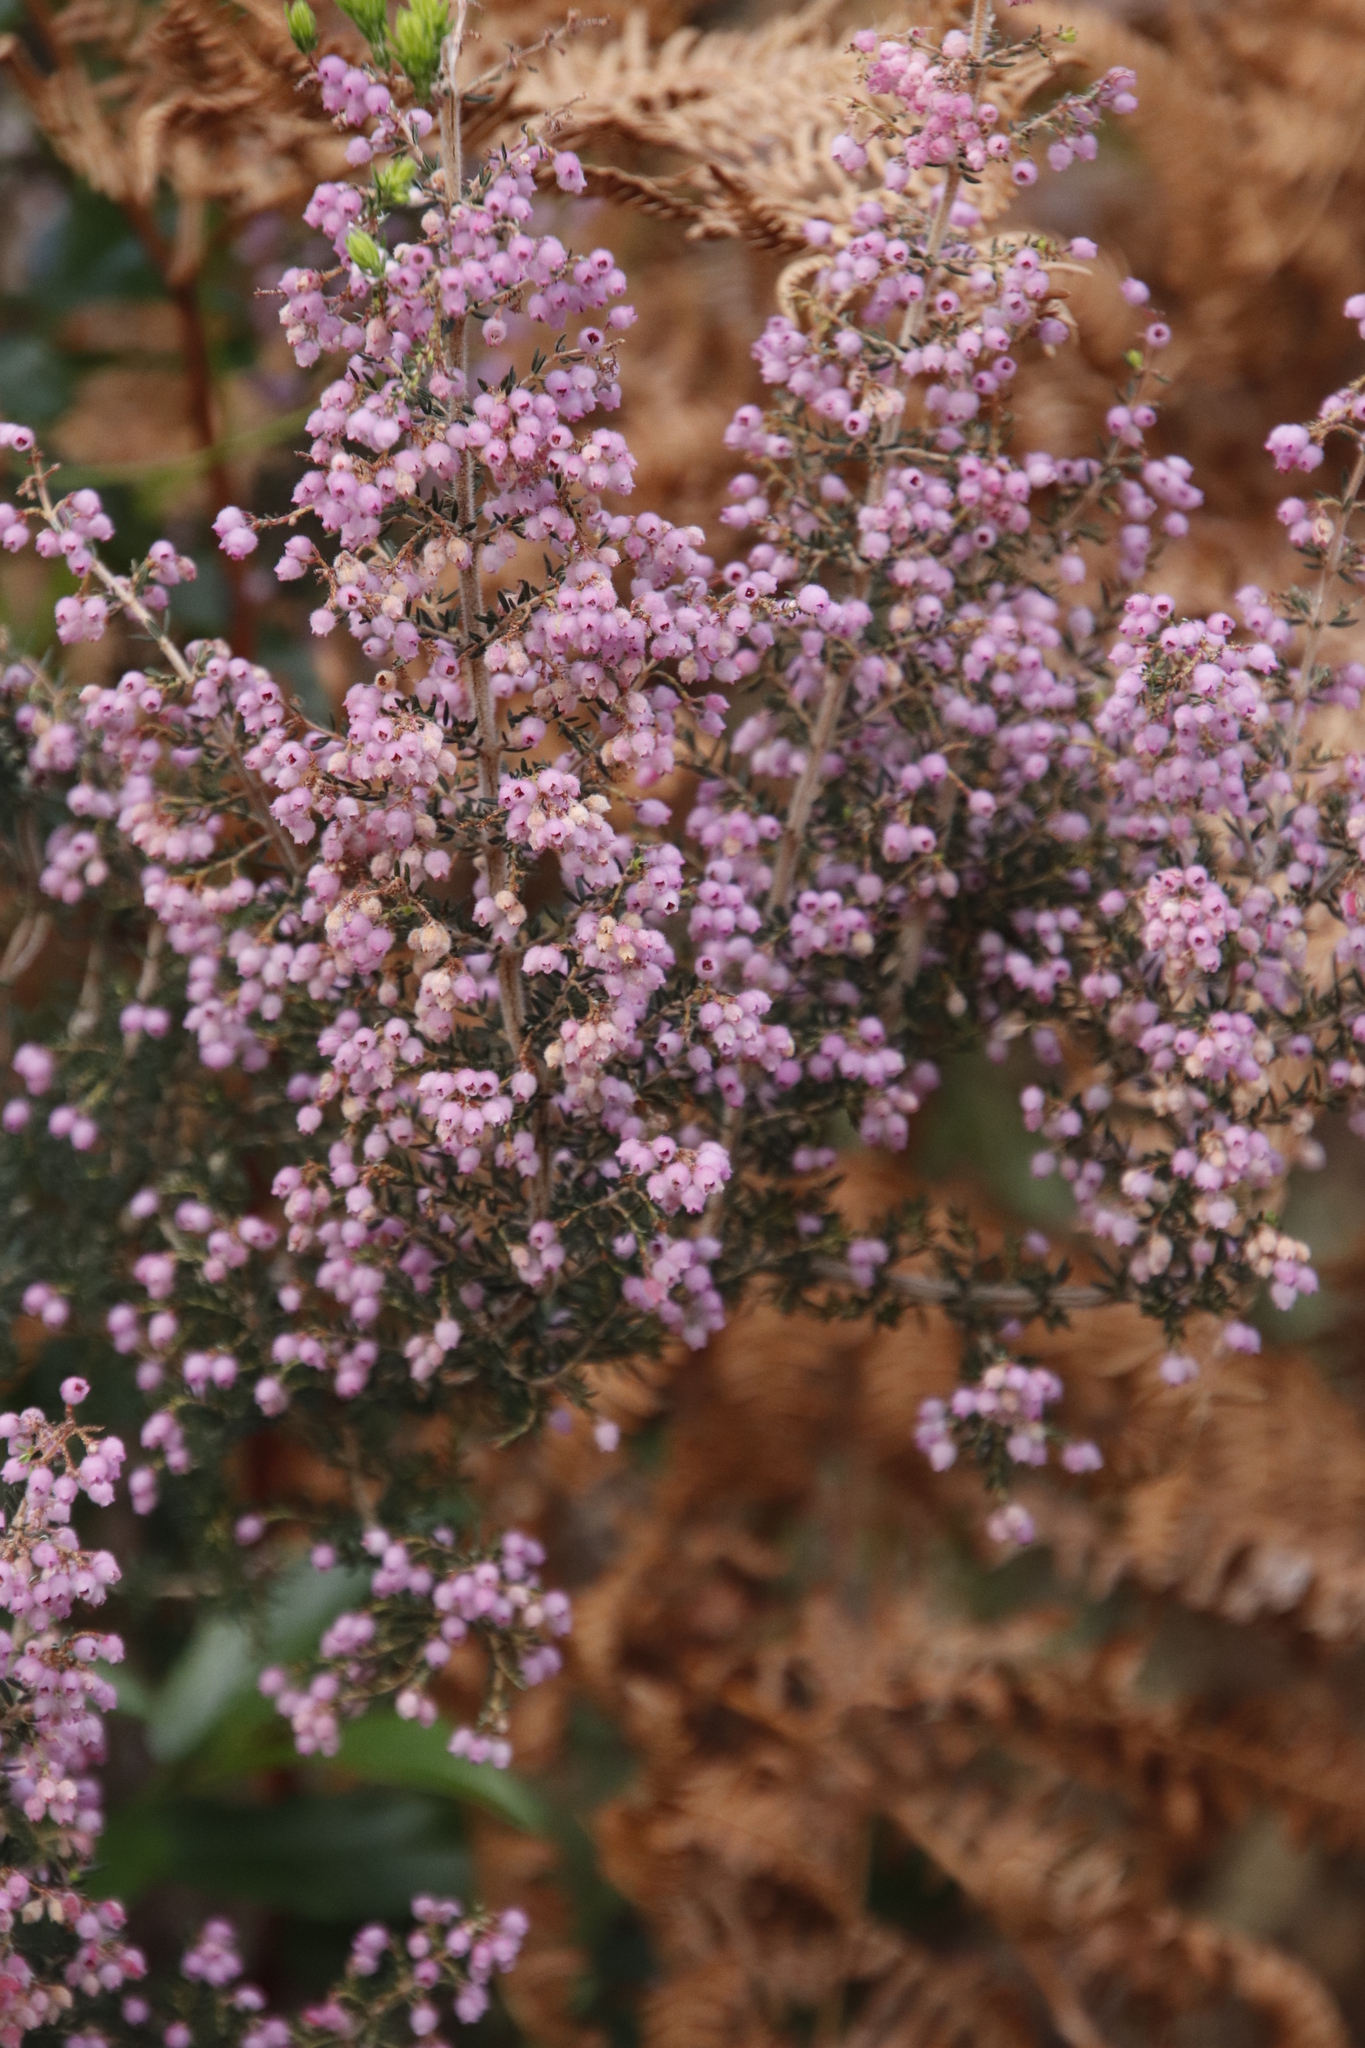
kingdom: Plantae
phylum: Tracheophyta
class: Magnoliopsida
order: Ericales
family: Ericaceae
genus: Erica
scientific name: Erica hirtiflora
